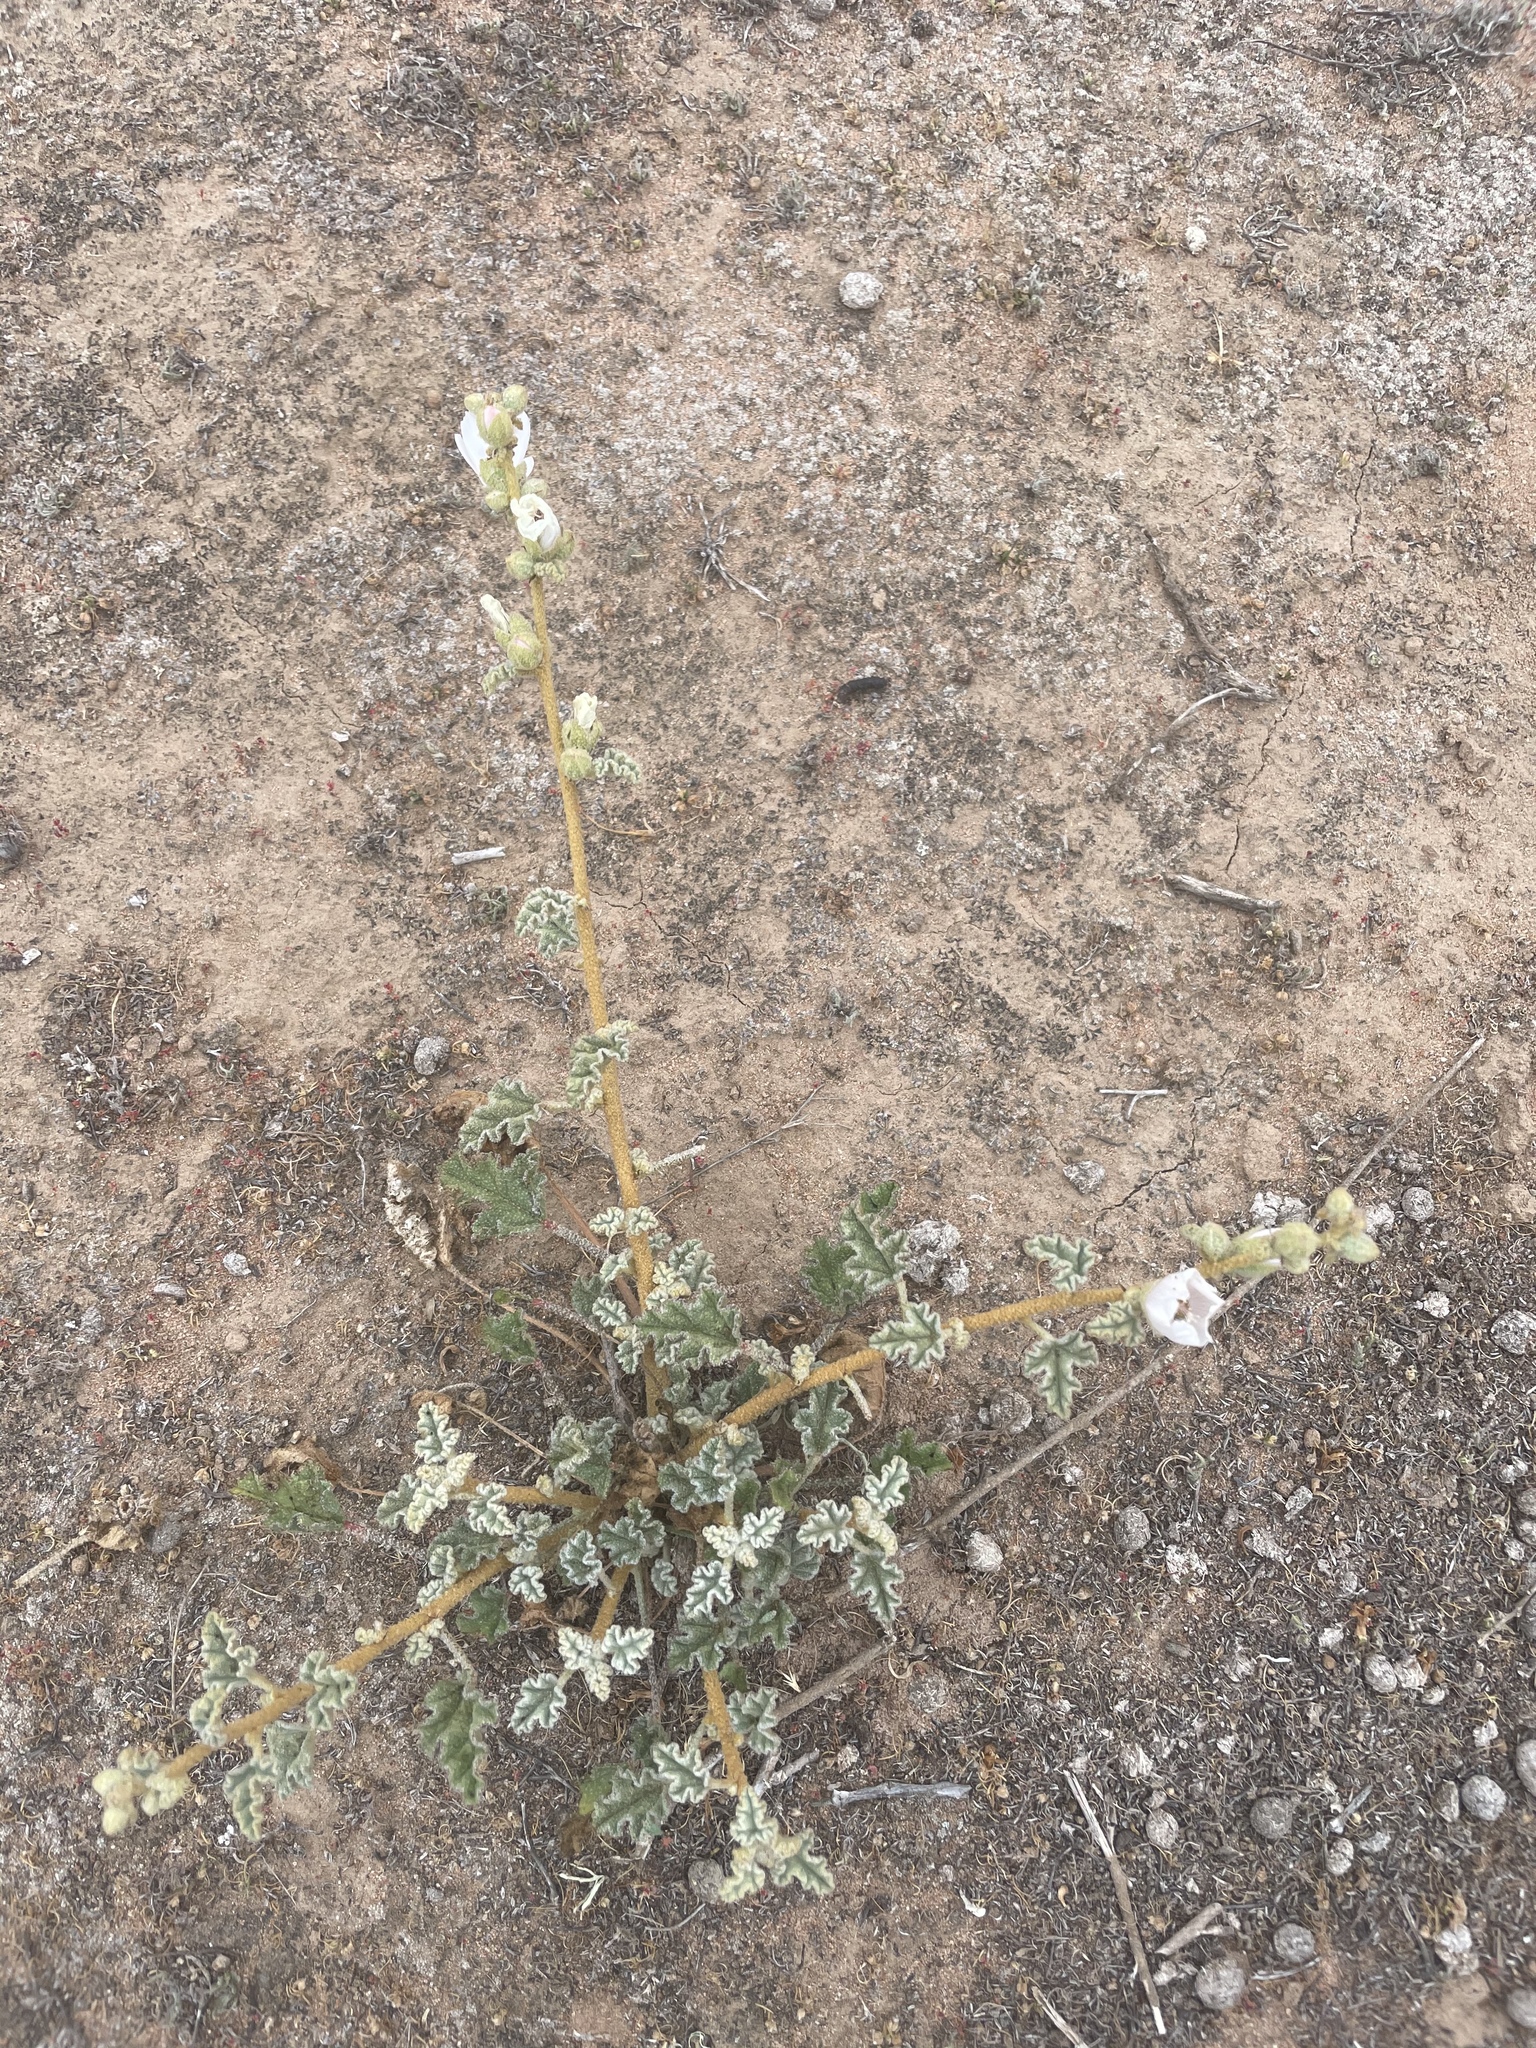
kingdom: Plantae
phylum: Tracheophyta
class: Magnoliopsida
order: Malvales
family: Malvaceae
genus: Sphaeralcea
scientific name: Sphaeralcea fulva
